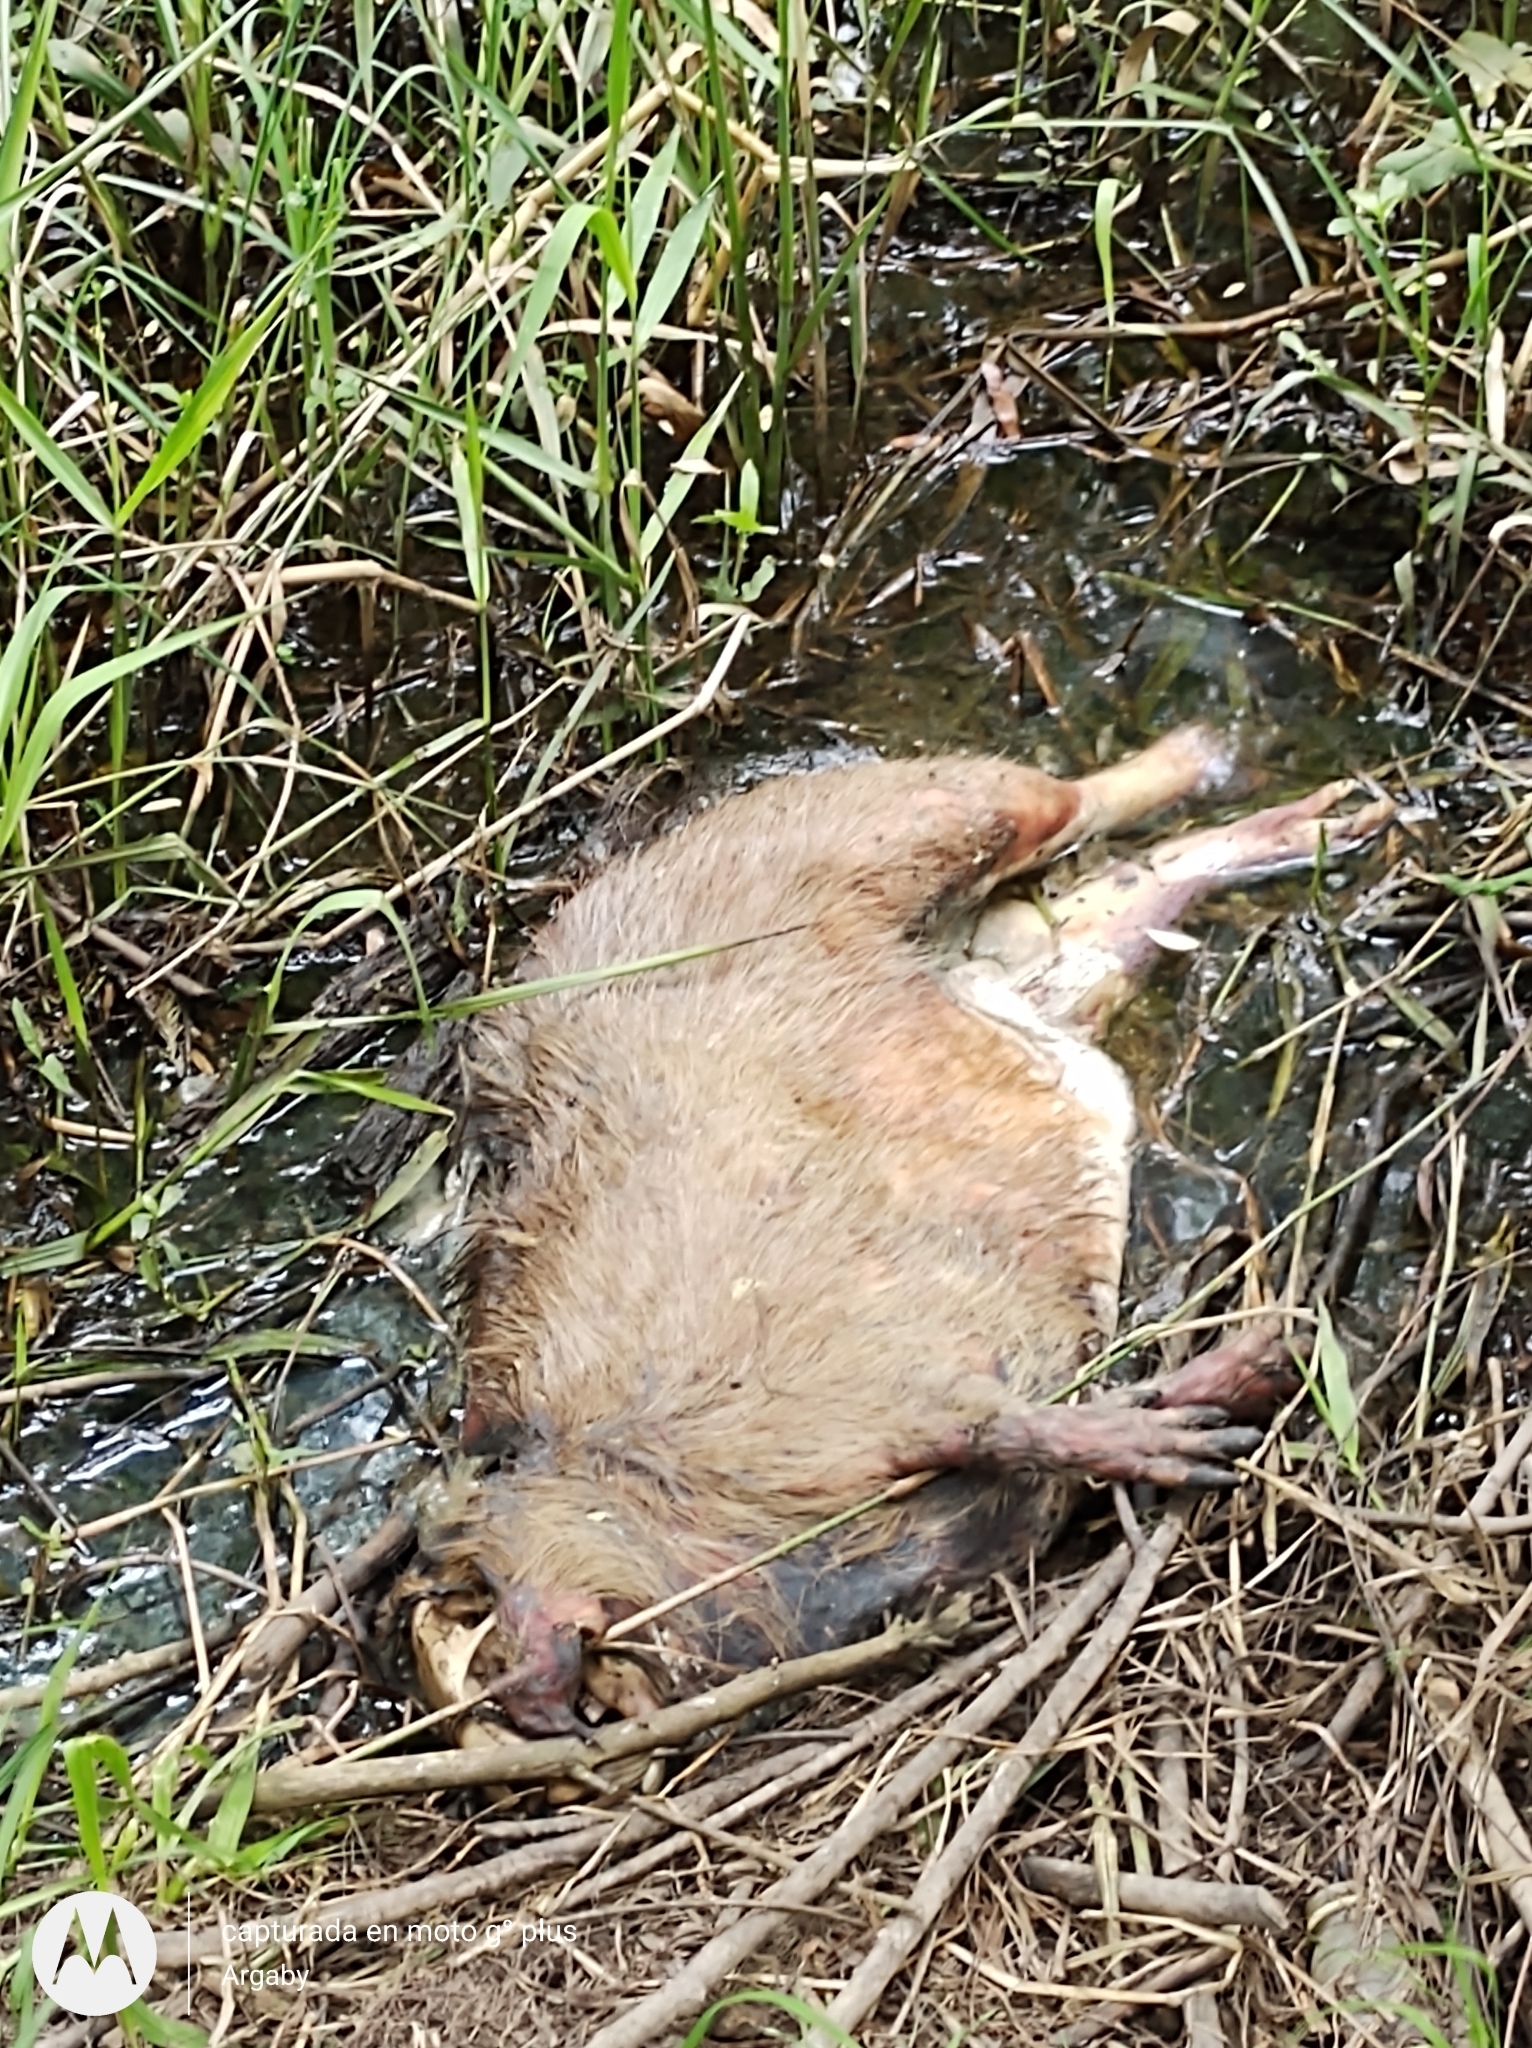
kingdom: Animalia
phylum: Chordata
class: Mammalia
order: Rodentia
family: Caviidae
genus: Hydrochoerus
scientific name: Hydrochoerus hydrochaeris
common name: Capybara
